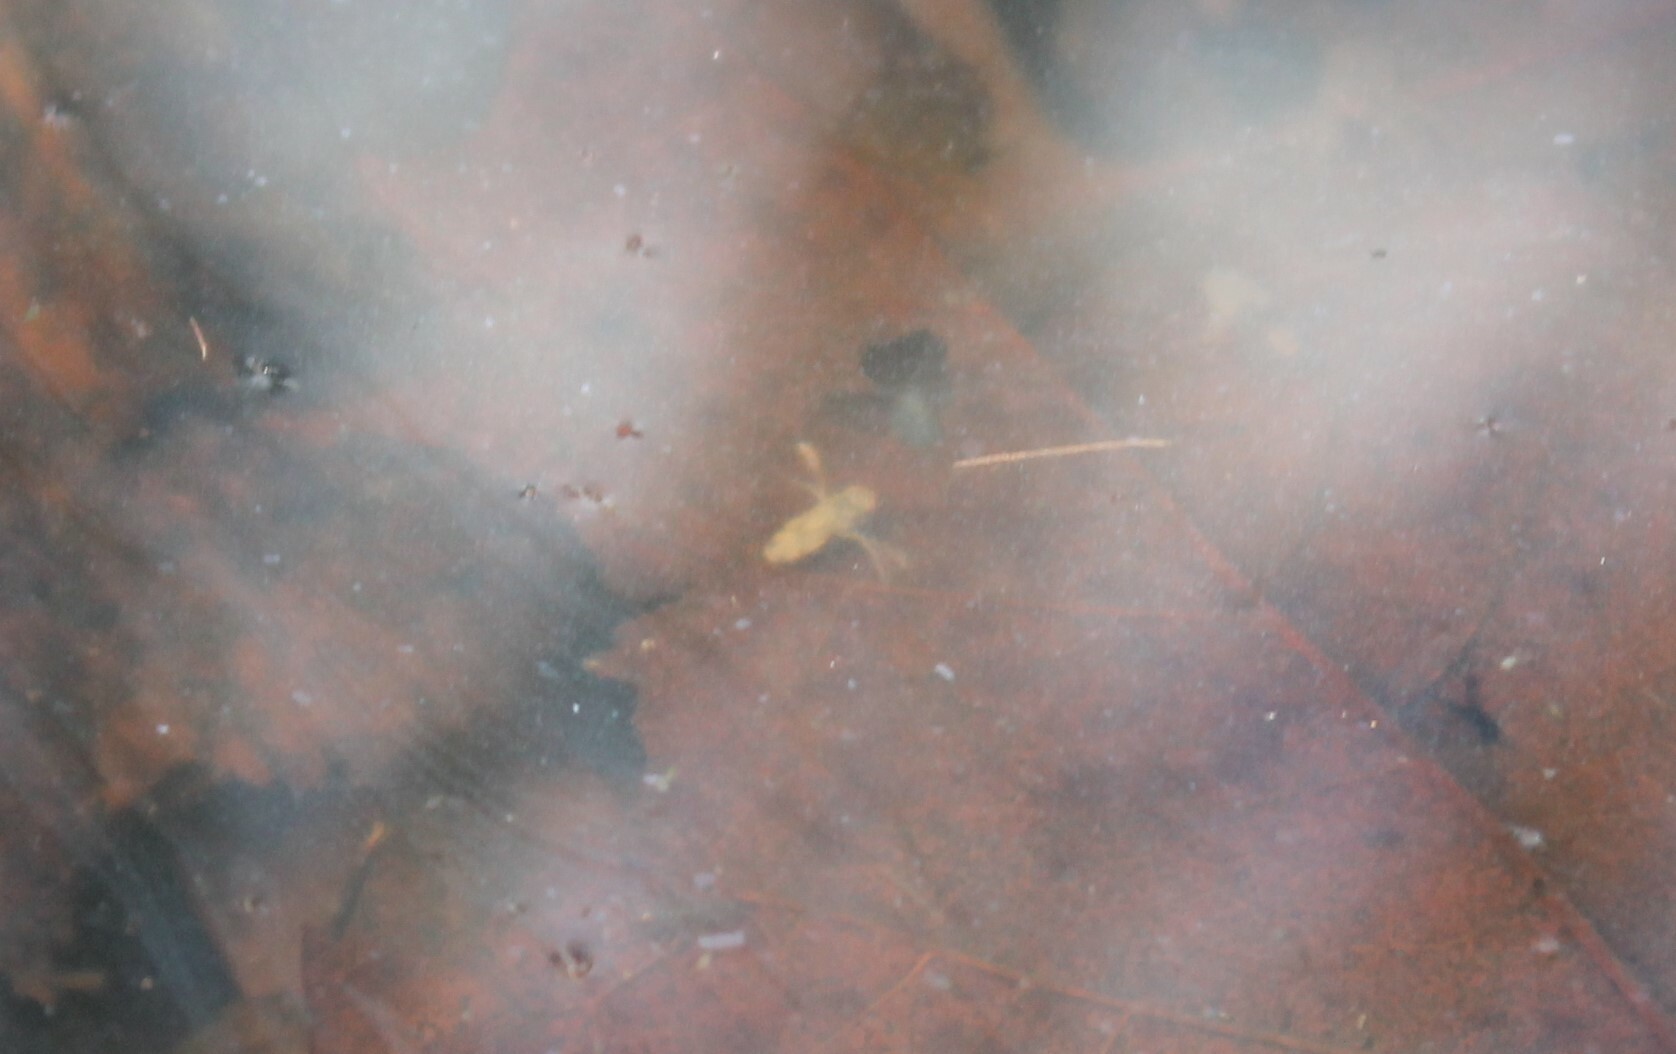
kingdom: Animalia
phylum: Arthropoda
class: Insecta
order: Hemiptera
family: Corixidae
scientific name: Corixidae
